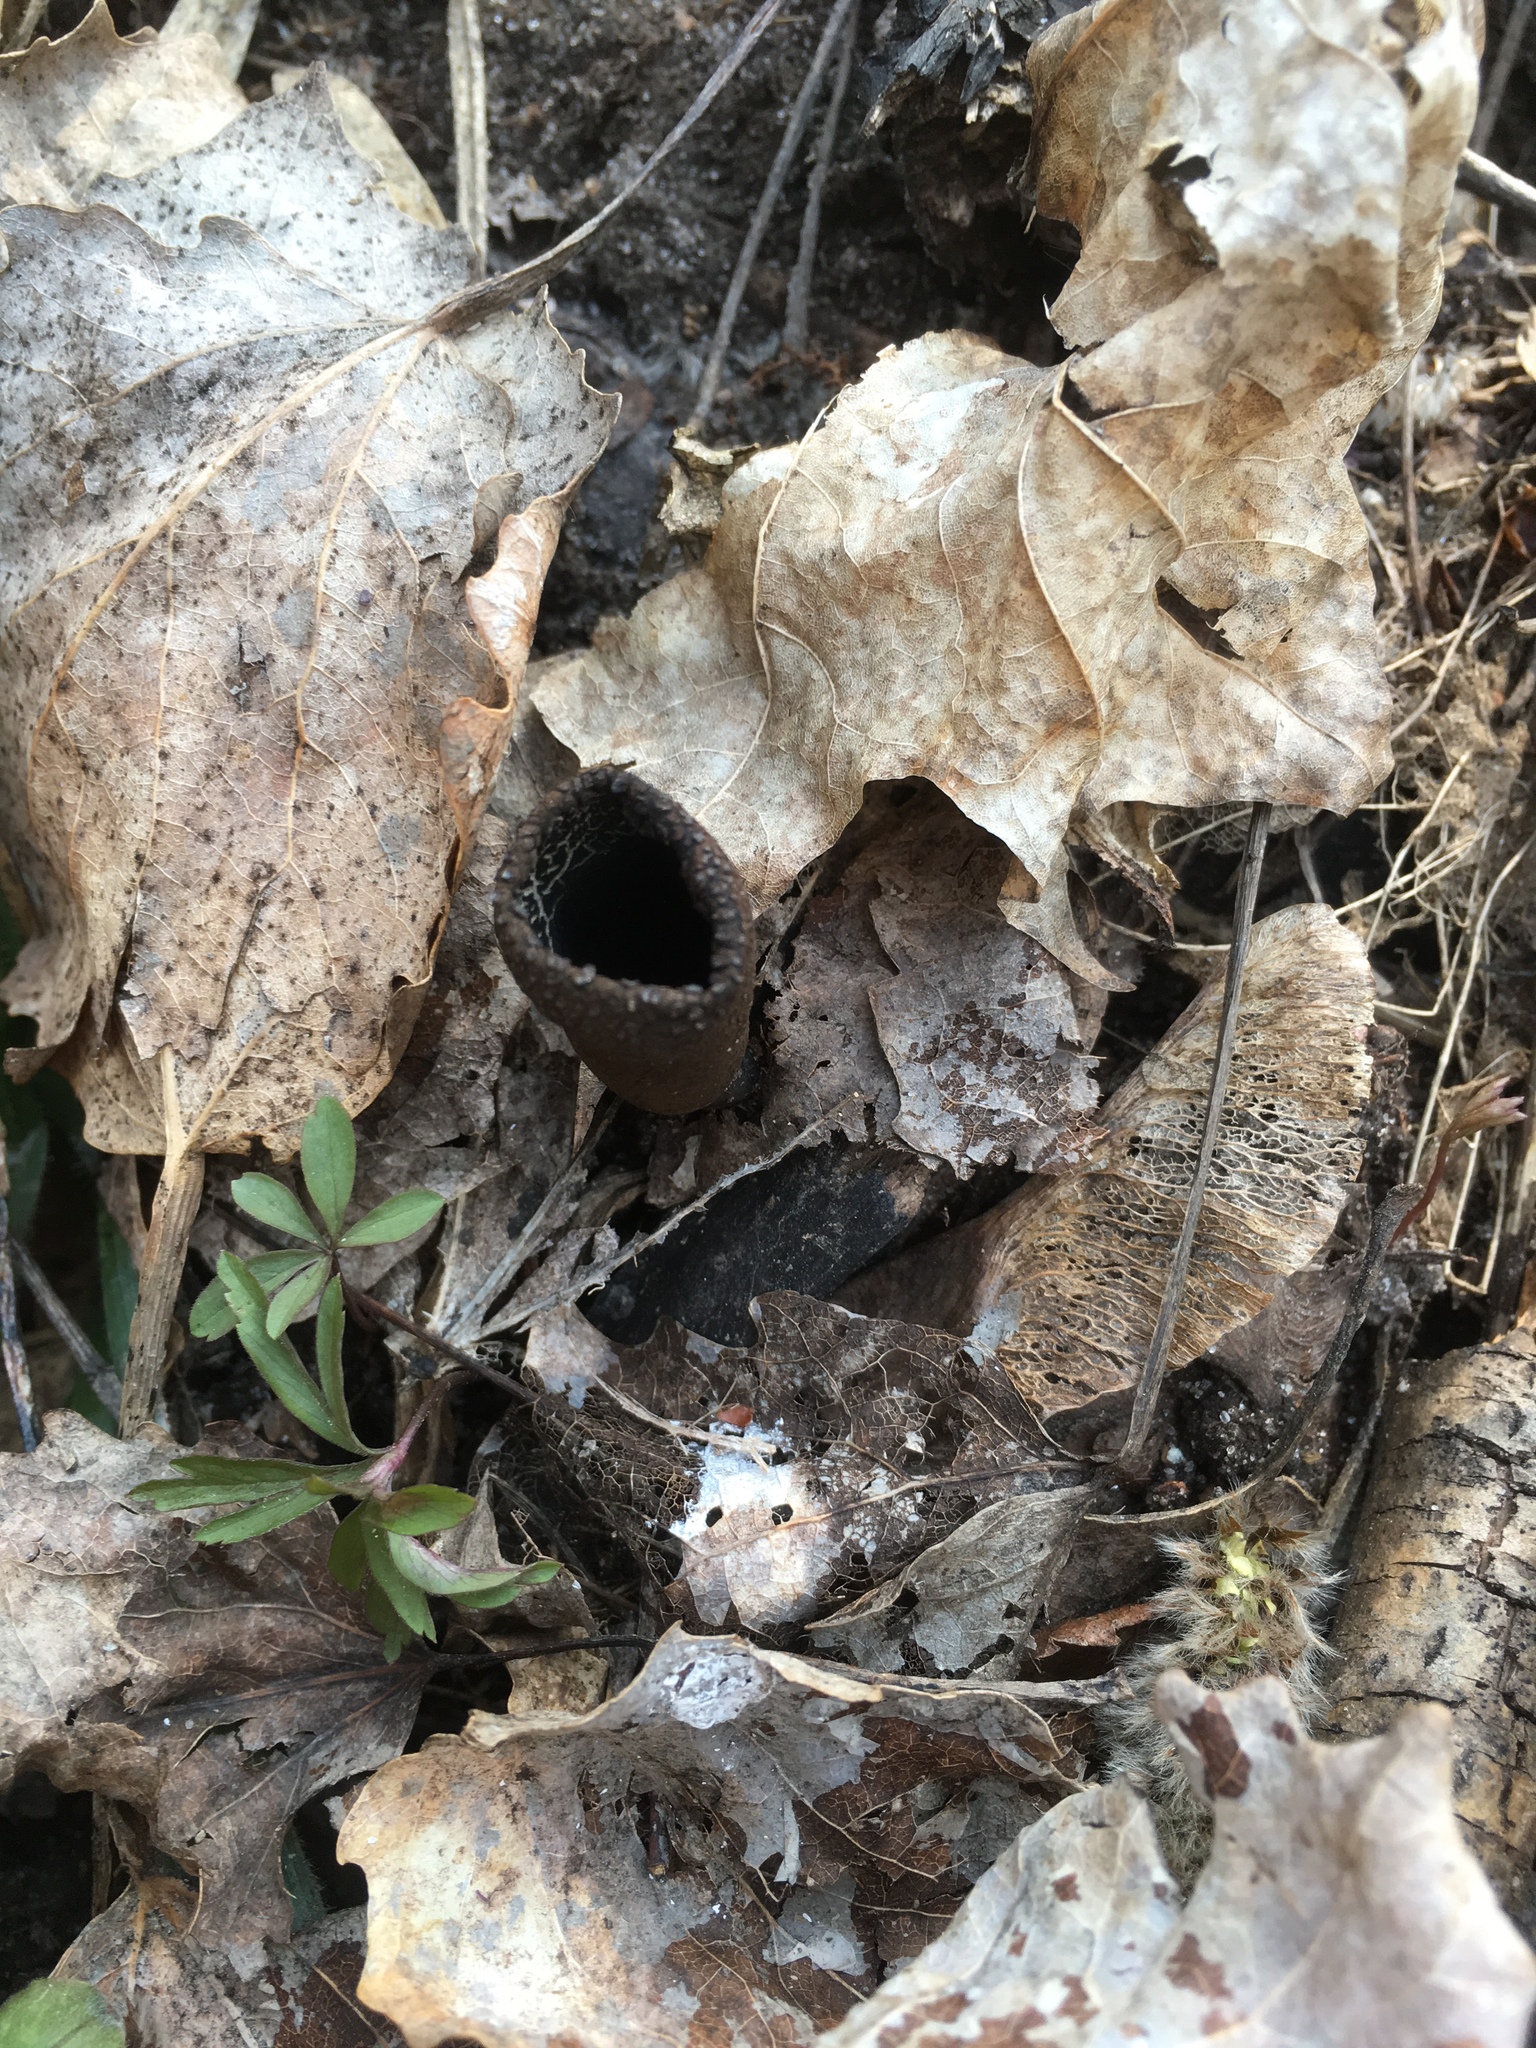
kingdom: Fungi
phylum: Ascomycota
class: Pezizomycetes
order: Pezizales
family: Sarcosomataceae
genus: Urnula
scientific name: Urnula craterium
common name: Devil's urn
